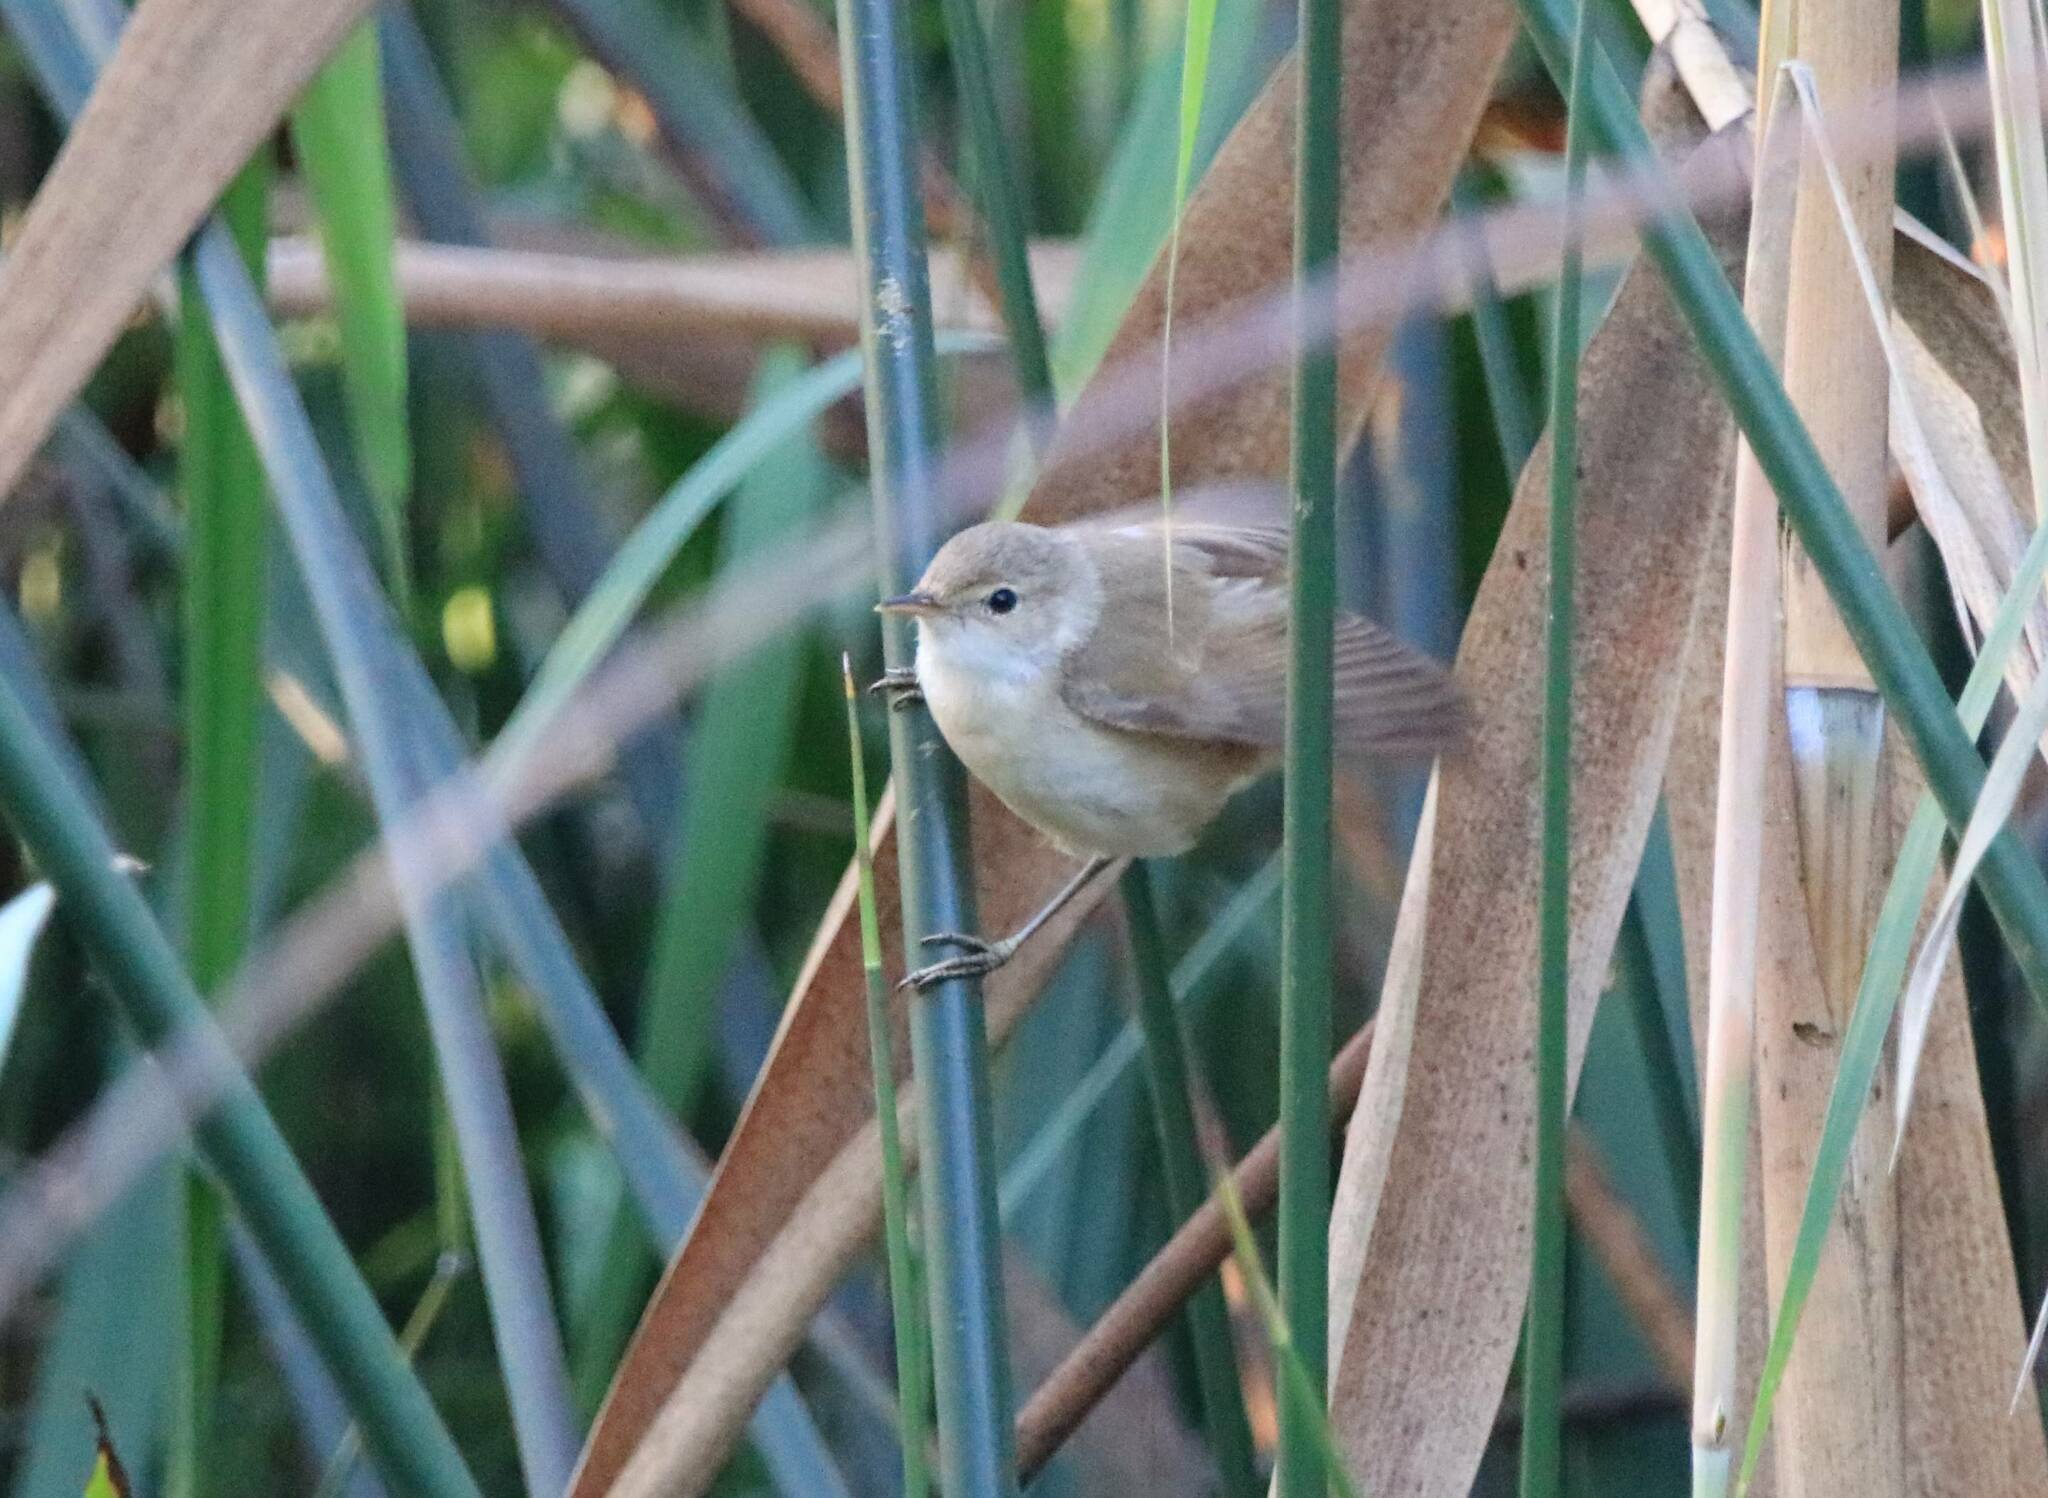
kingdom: Animalia
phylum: Chordata
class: Aves
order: Passeriformes
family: Acrocephalidae
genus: Acrocephalus
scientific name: Acrocephalus scirpaceus
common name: Eurasian reed warbler
